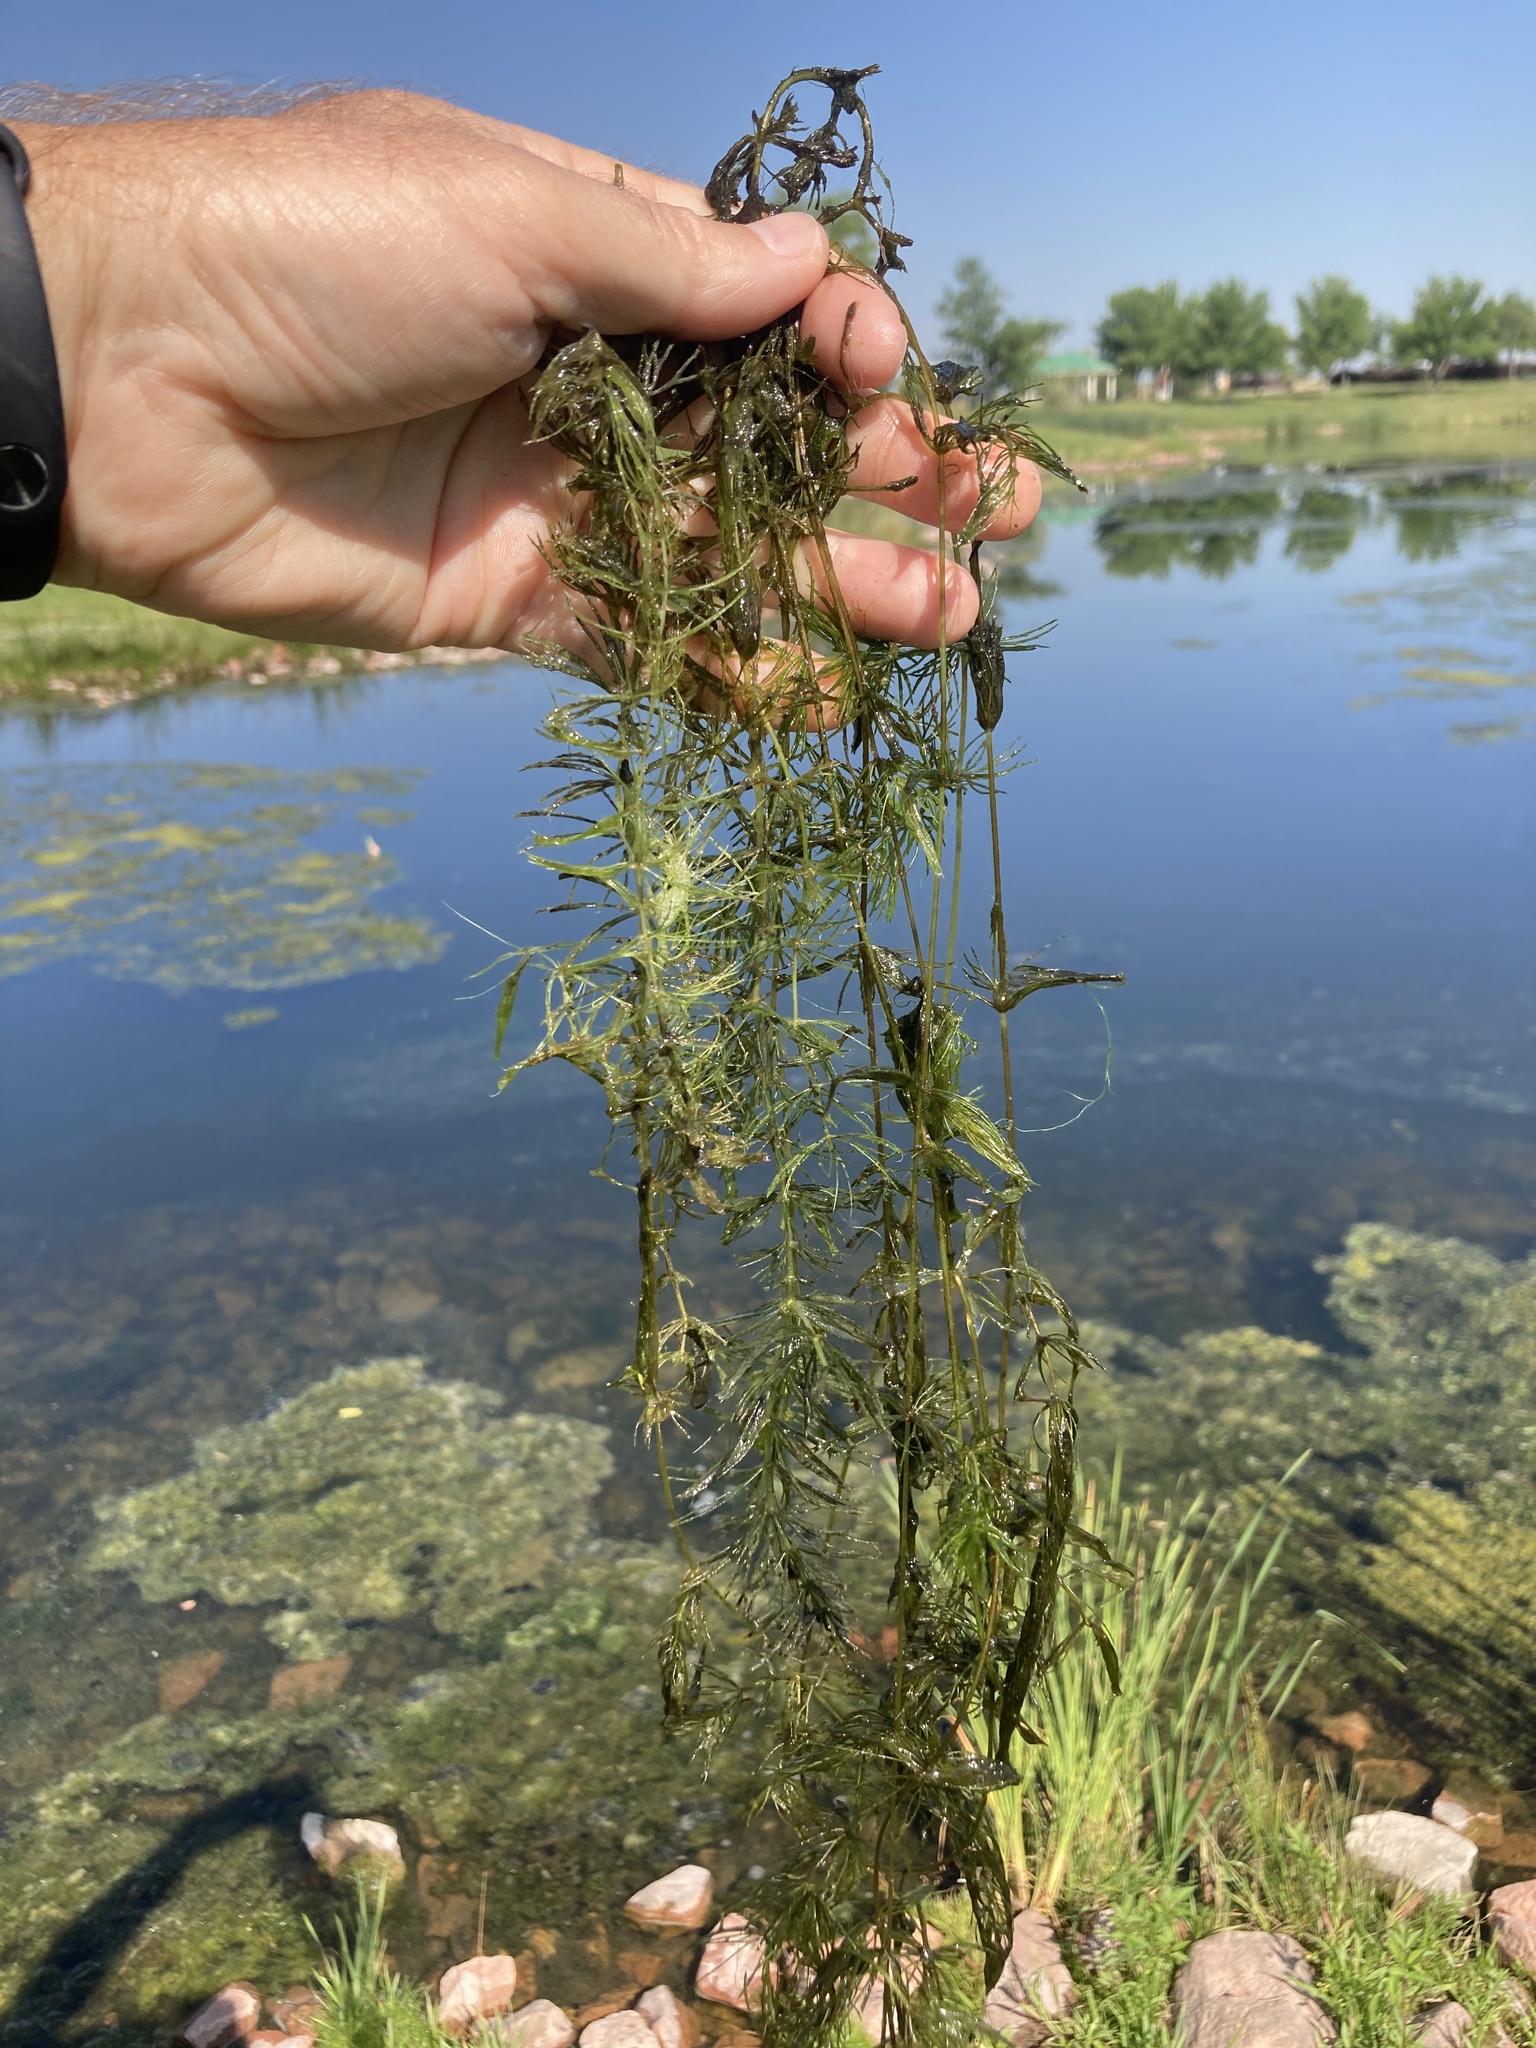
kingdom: Plantae
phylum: Tracheophyta
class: Magnoliopsida
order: Ceratophyllales
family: Ceratophyllaceae
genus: Ceratophyllum
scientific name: Ceratophyllum demersum
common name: Rigid hornwort
